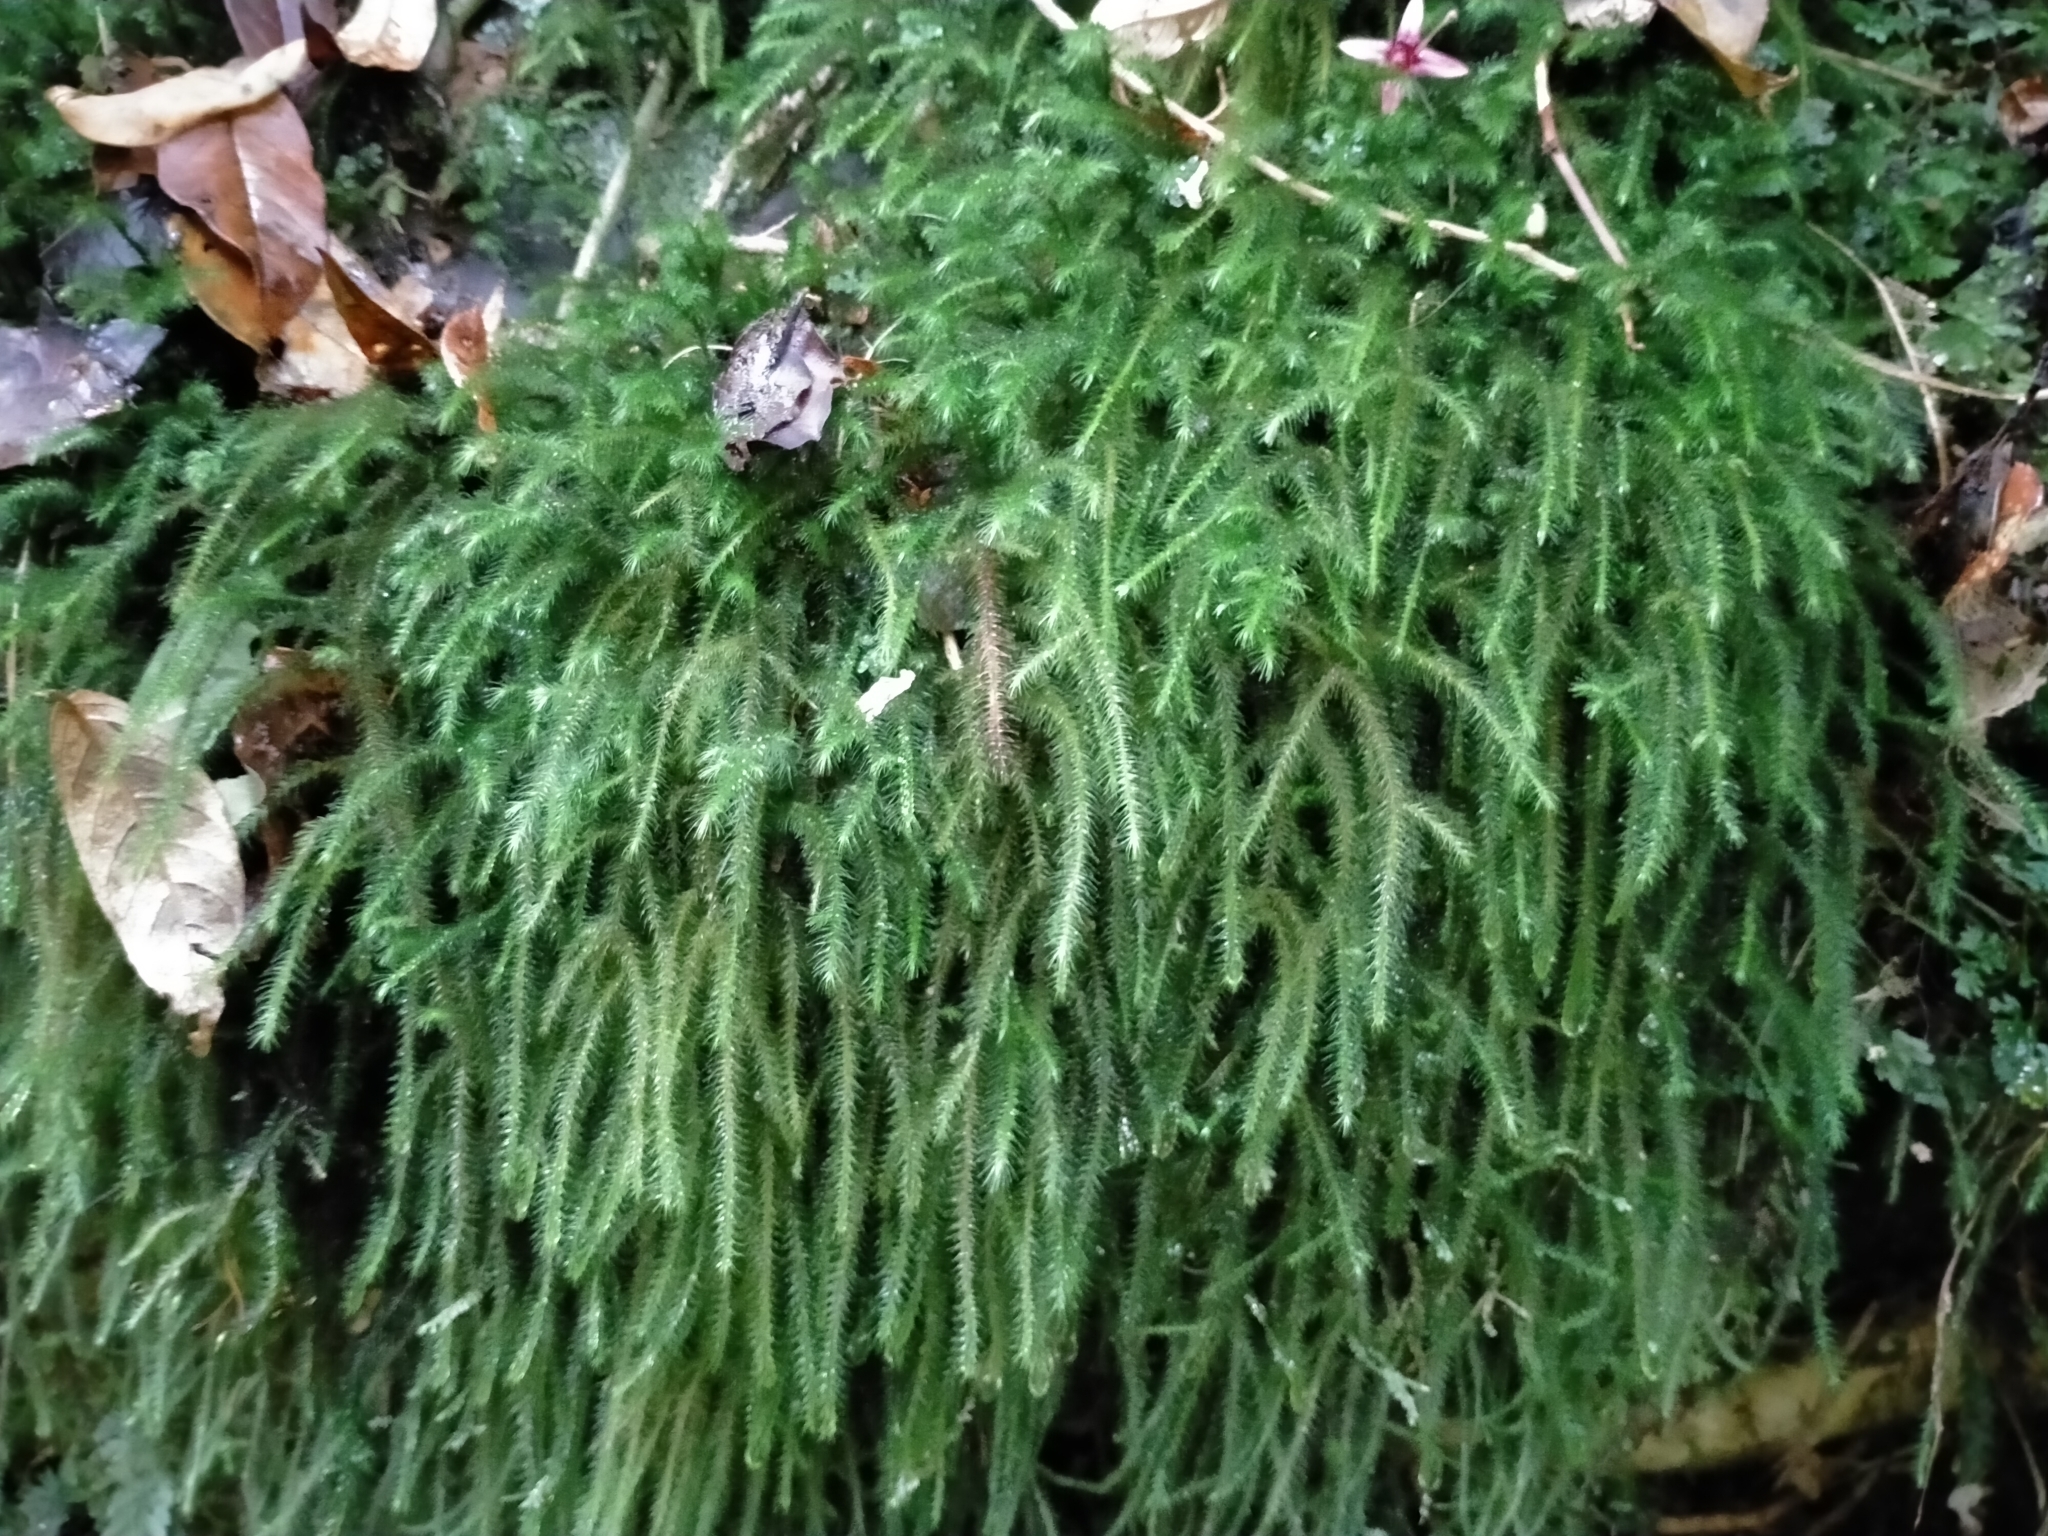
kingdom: Plantae
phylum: Bryophyta
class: Bryopsida
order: Hypnales
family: Neckeraceae
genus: Echinodiopsis
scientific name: Echinodiopsis hispida
